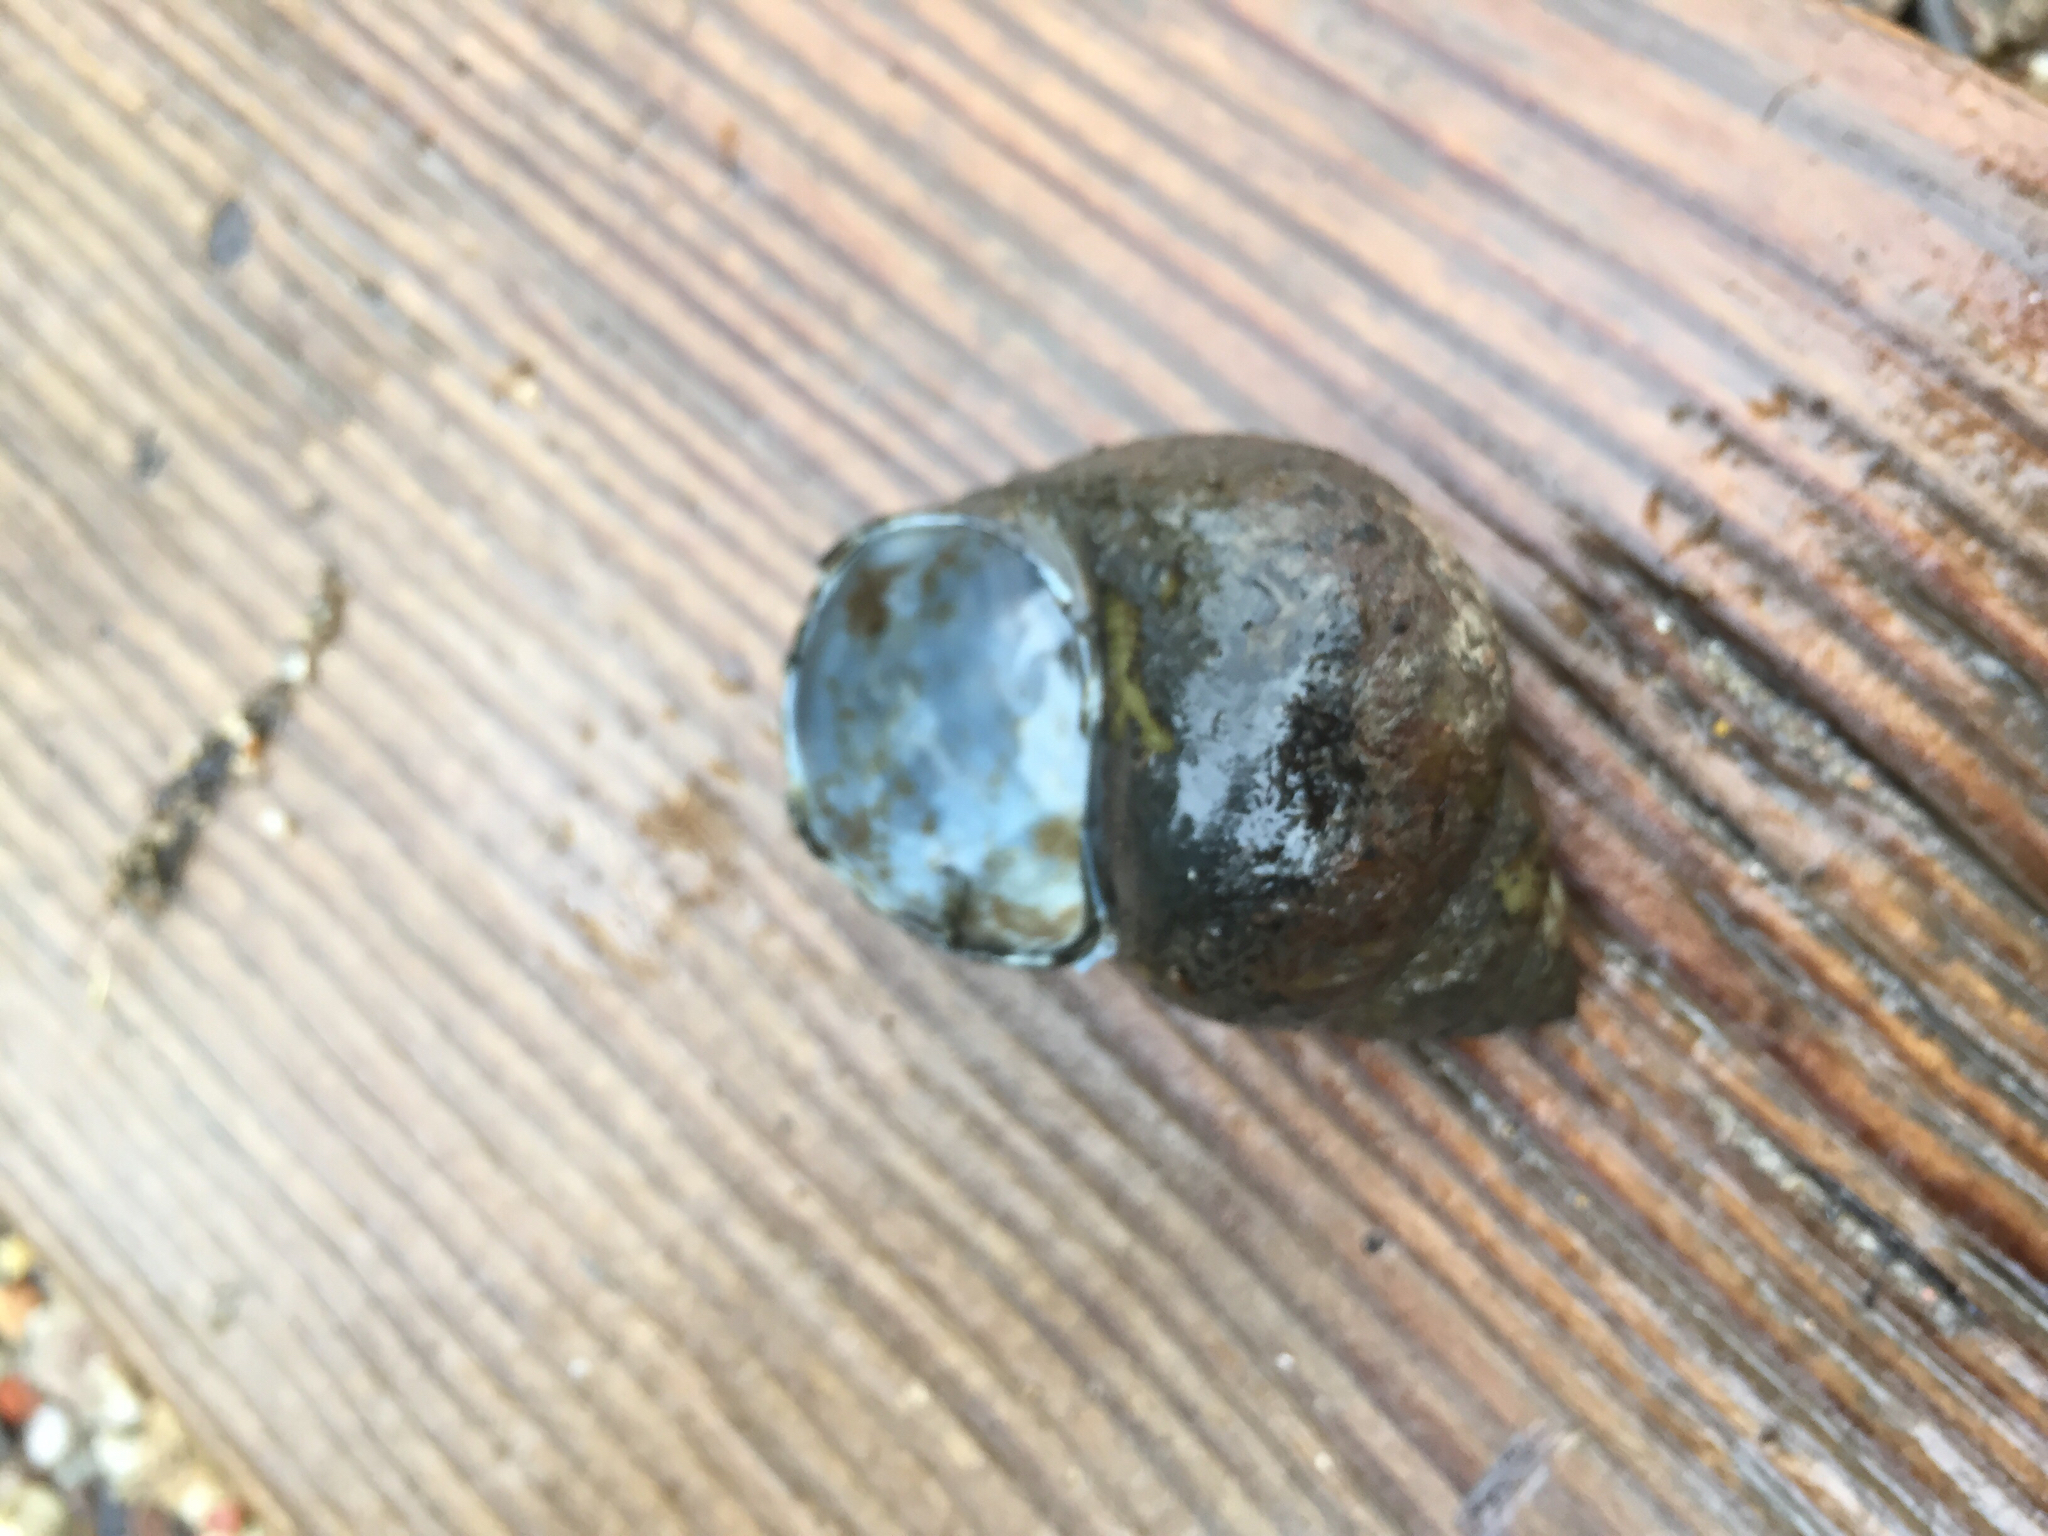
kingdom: Animalia
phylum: Mollusca
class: Gastropoda
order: Architaenioglossa
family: Viviparidae
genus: Cipangopaludina
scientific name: Cipangopaludina chinensis
